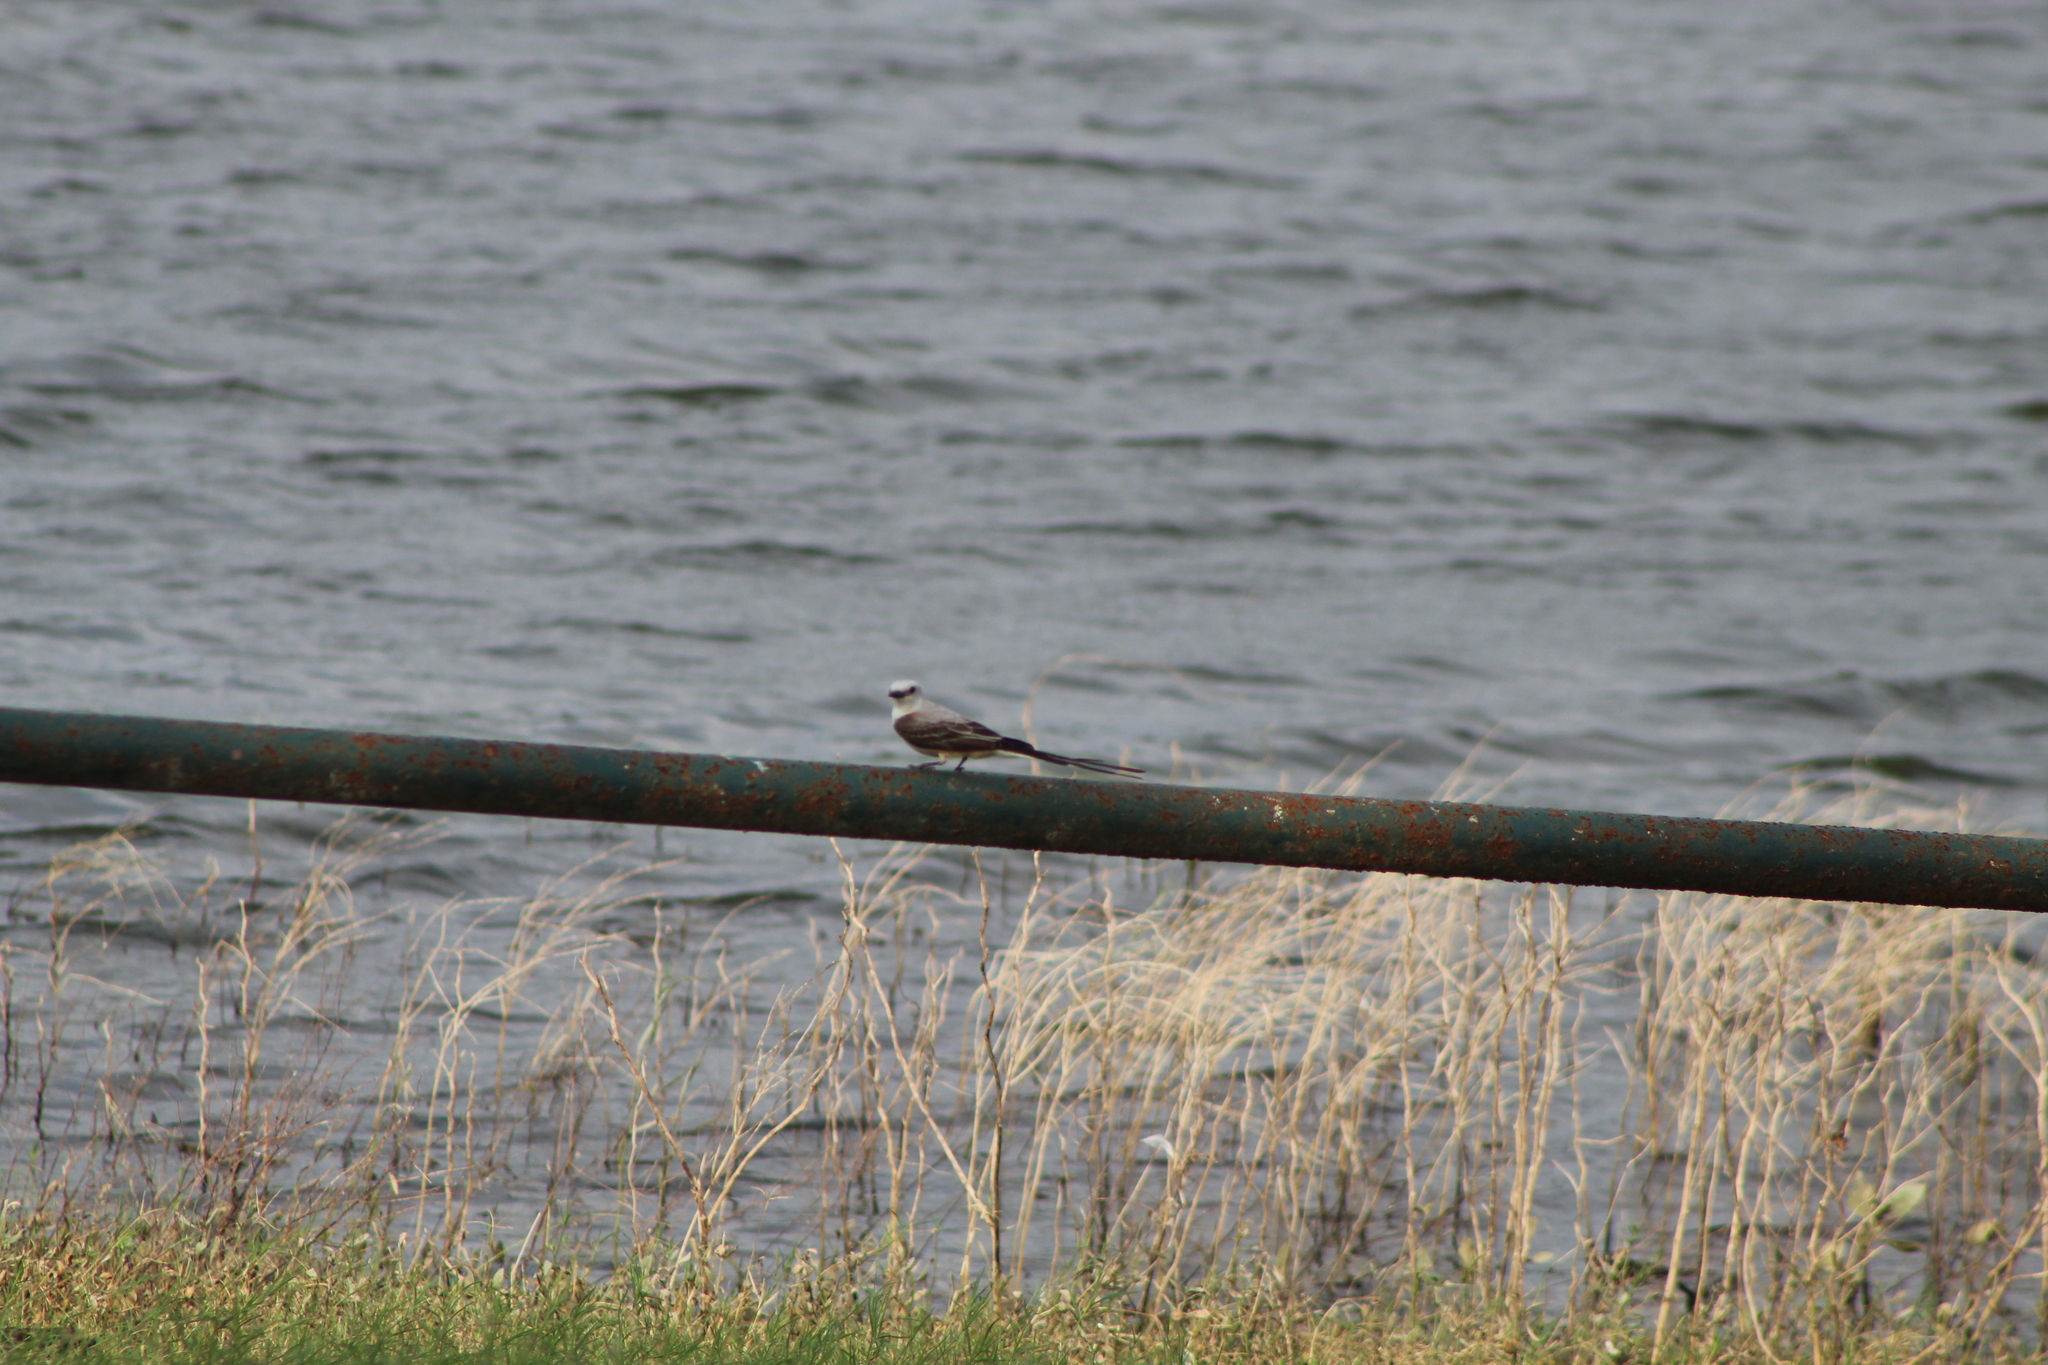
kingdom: Animalia
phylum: Chordata
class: Aves
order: Passeriformes
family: Tyrannidae
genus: Tyrannus
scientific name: Tyrannus forficatus
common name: Scissor-tailed flycatcher
